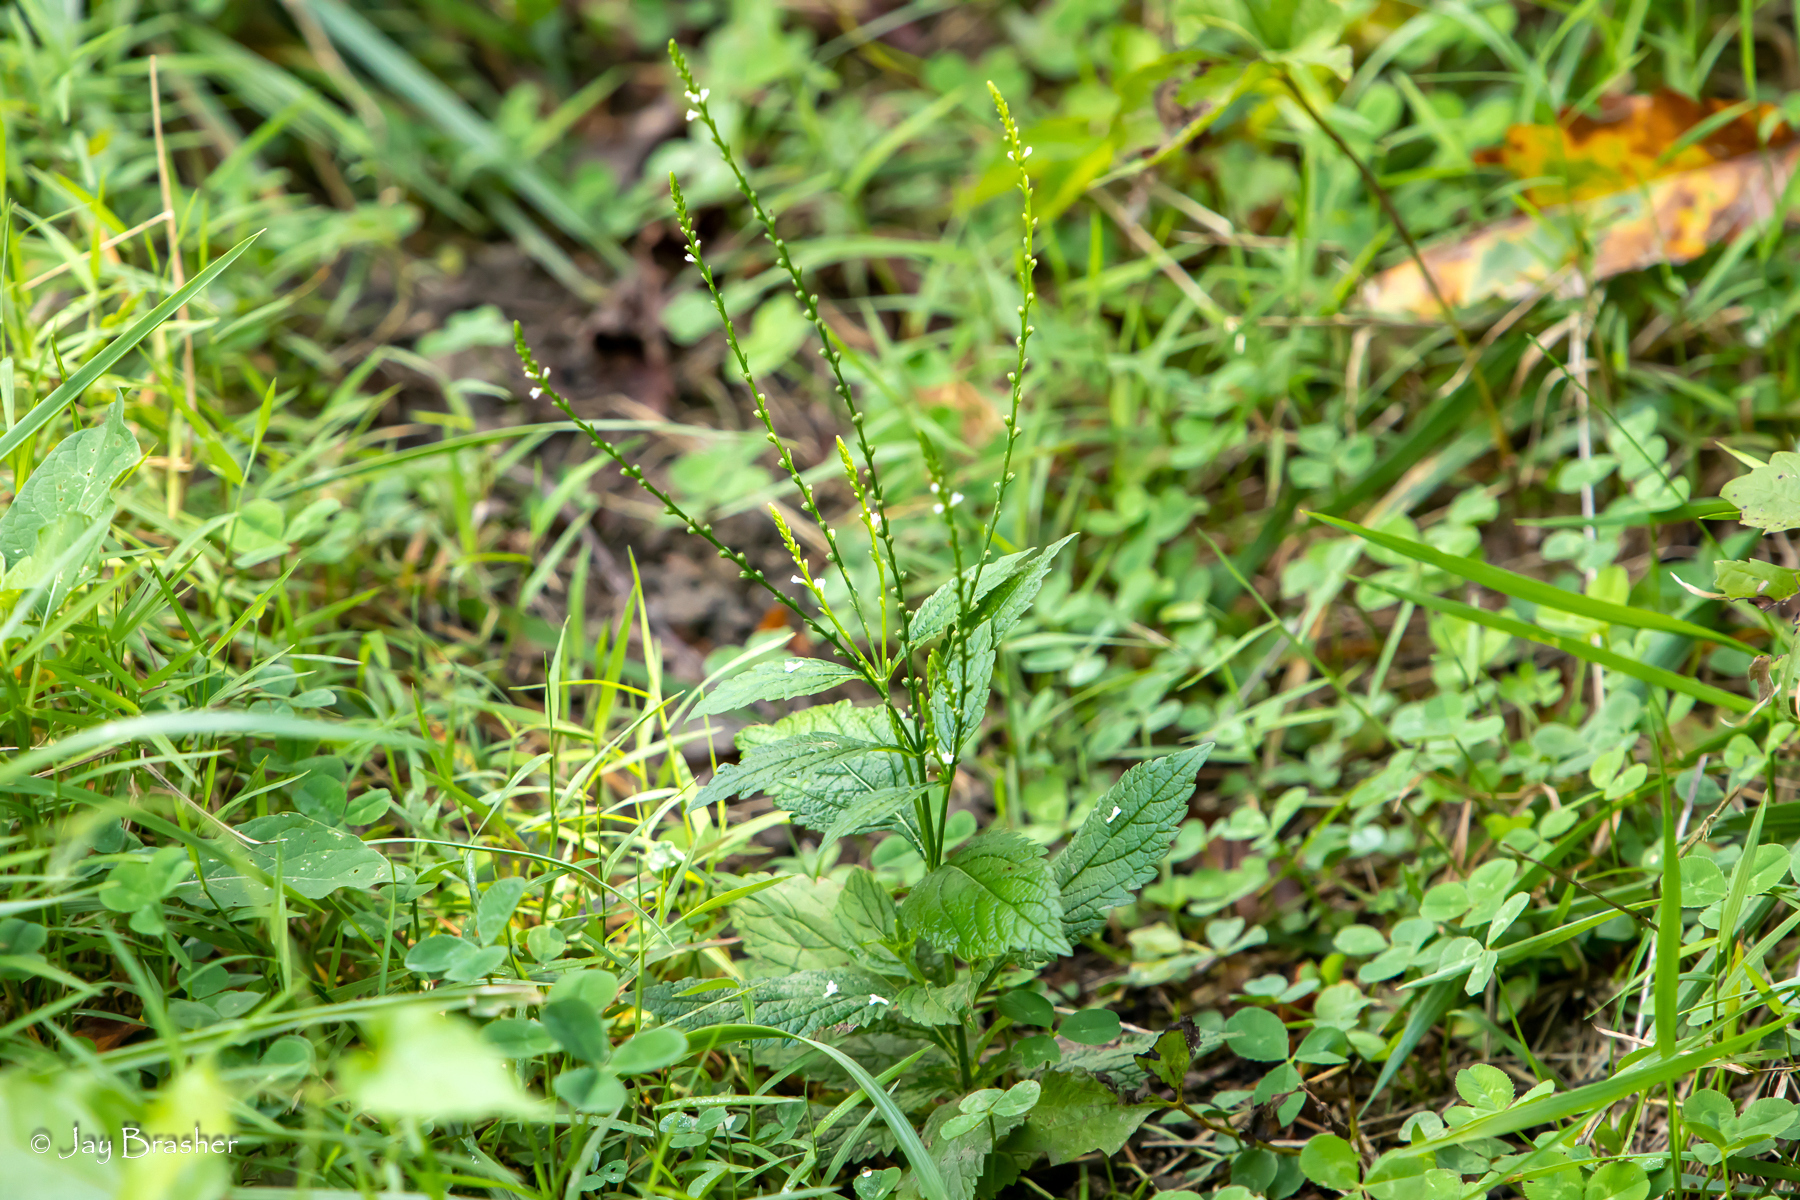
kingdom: Plantae
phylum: Tracheophyta
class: Magnoliopsida
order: Lamiales
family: Verbenaceae
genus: Verbena
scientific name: Verbena urticifolia
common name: Nettle-leaved vervain
